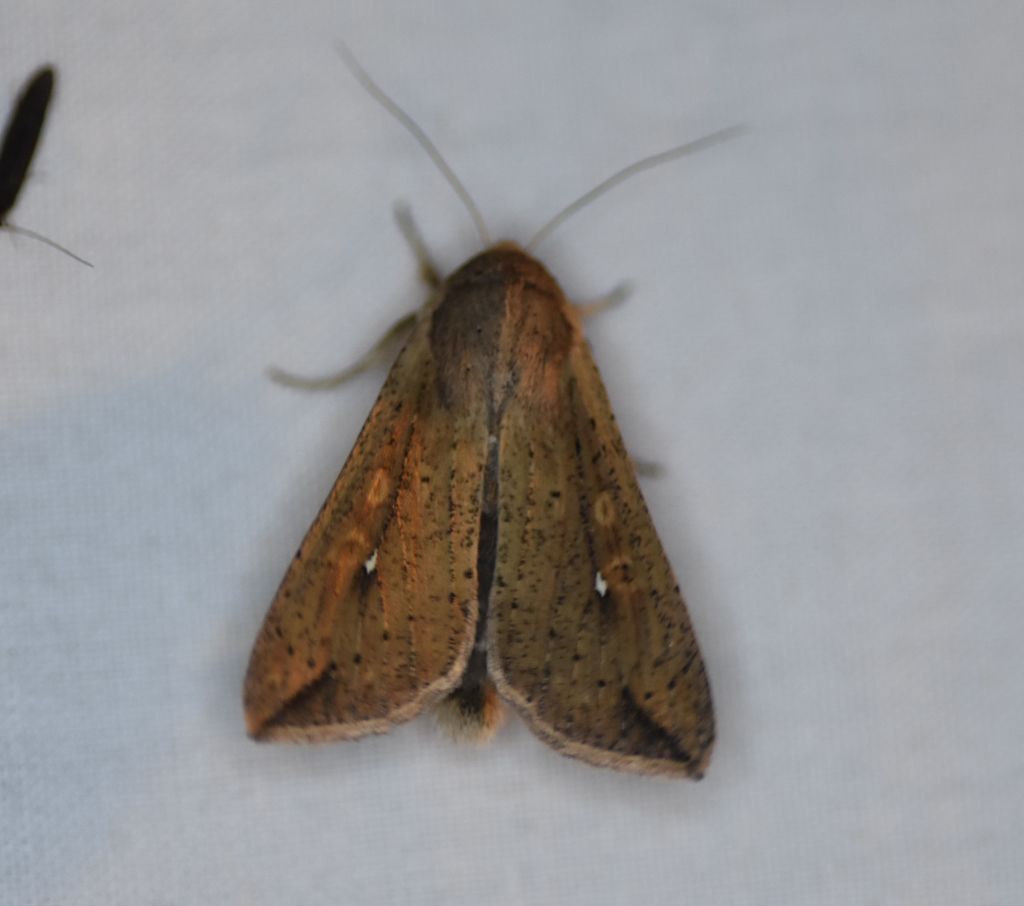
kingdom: Animalia
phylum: Arthropoda
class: Insecta
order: Lepidoptera
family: Noctuidae
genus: Mythimna
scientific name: Mythimna unipuncta
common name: White-speck
